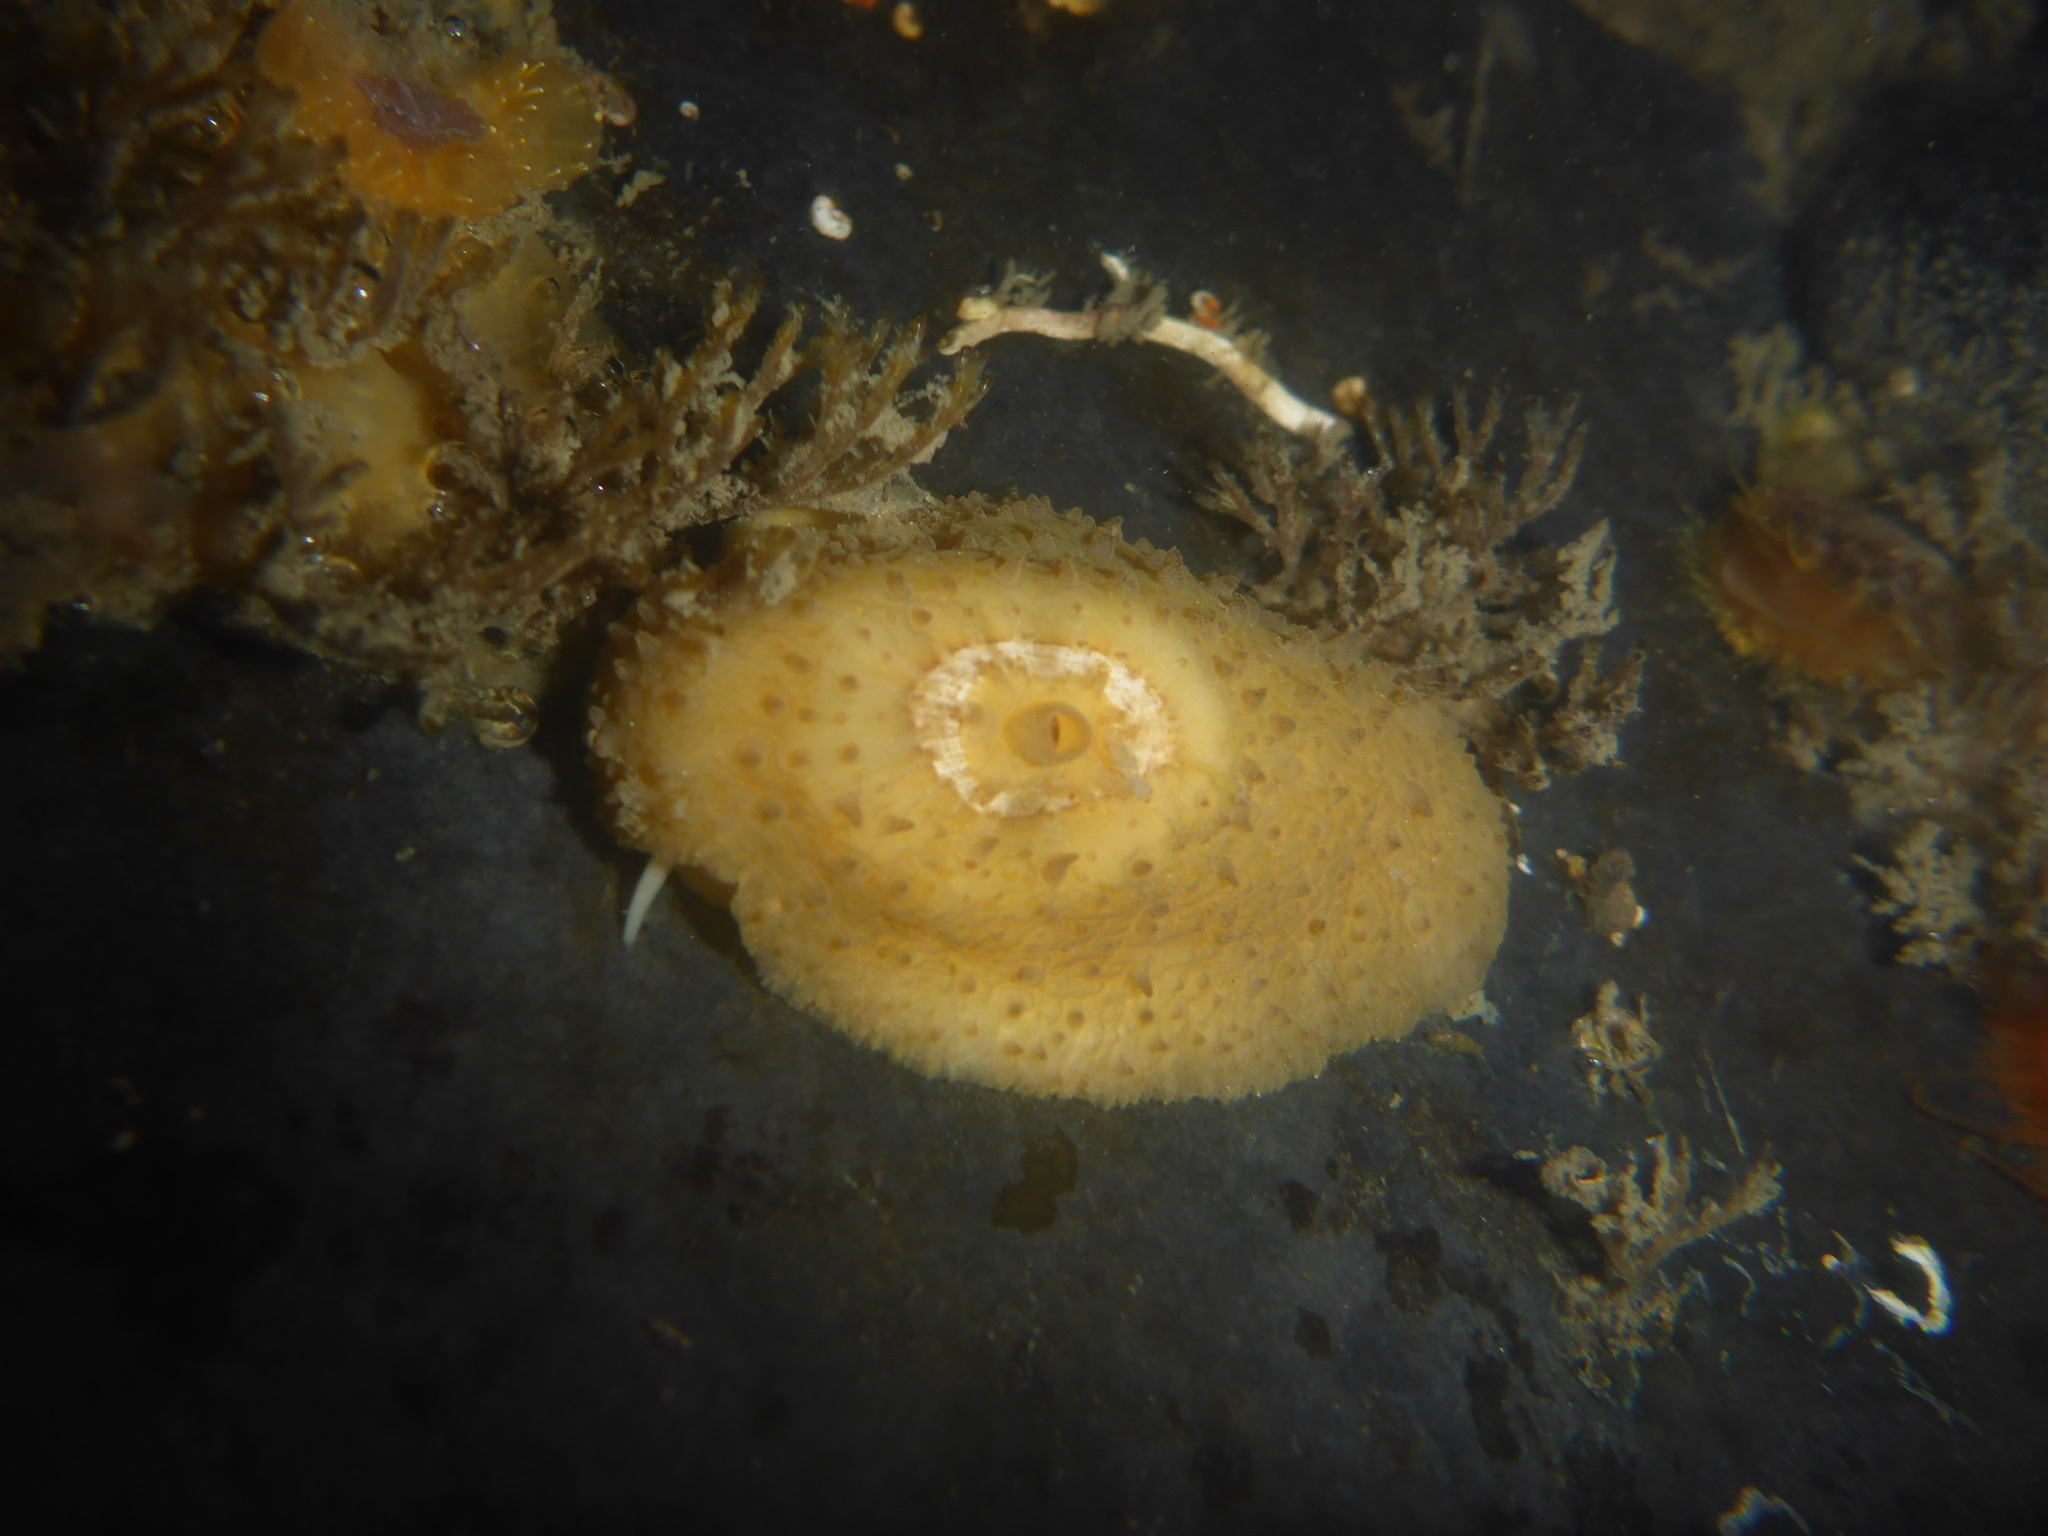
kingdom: Animalia
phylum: Mollusca
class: Gastropoda
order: Lepetellida
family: Fissurellidae
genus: Fissurellidea
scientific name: Fissurellidea bimaculata
